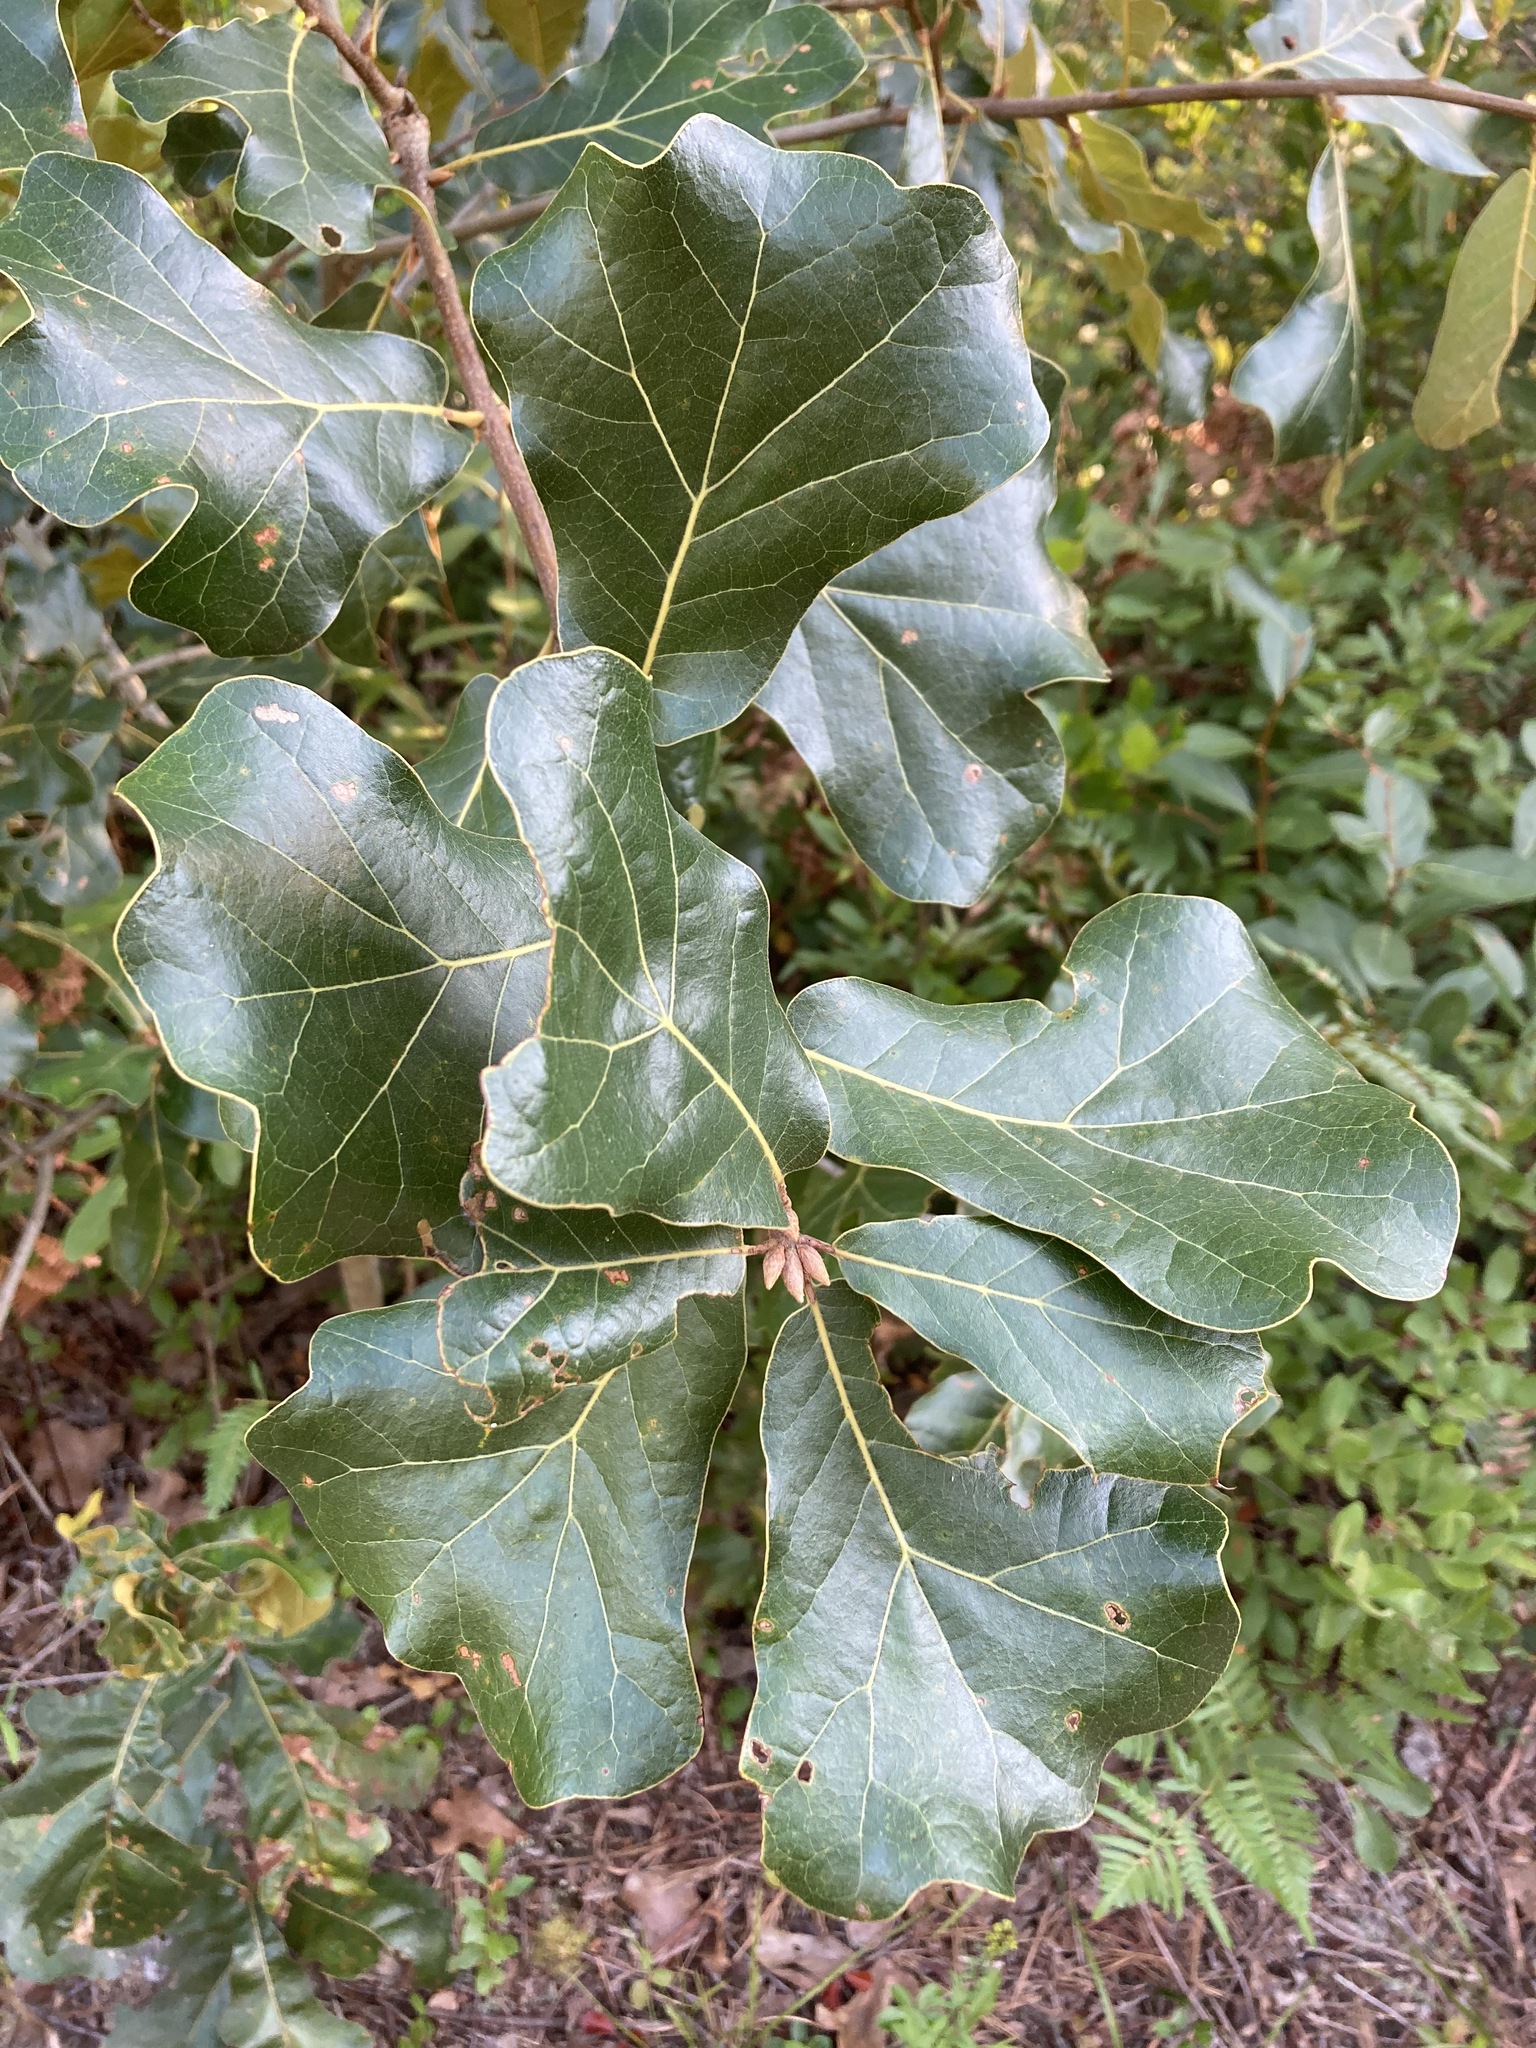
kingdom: Plantae
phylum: Tracheophyta
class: Magnoliopsida
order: Fagales
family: Fagaceae
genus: Quercus
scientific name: Quercus marilandica
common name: Blackjack oak
